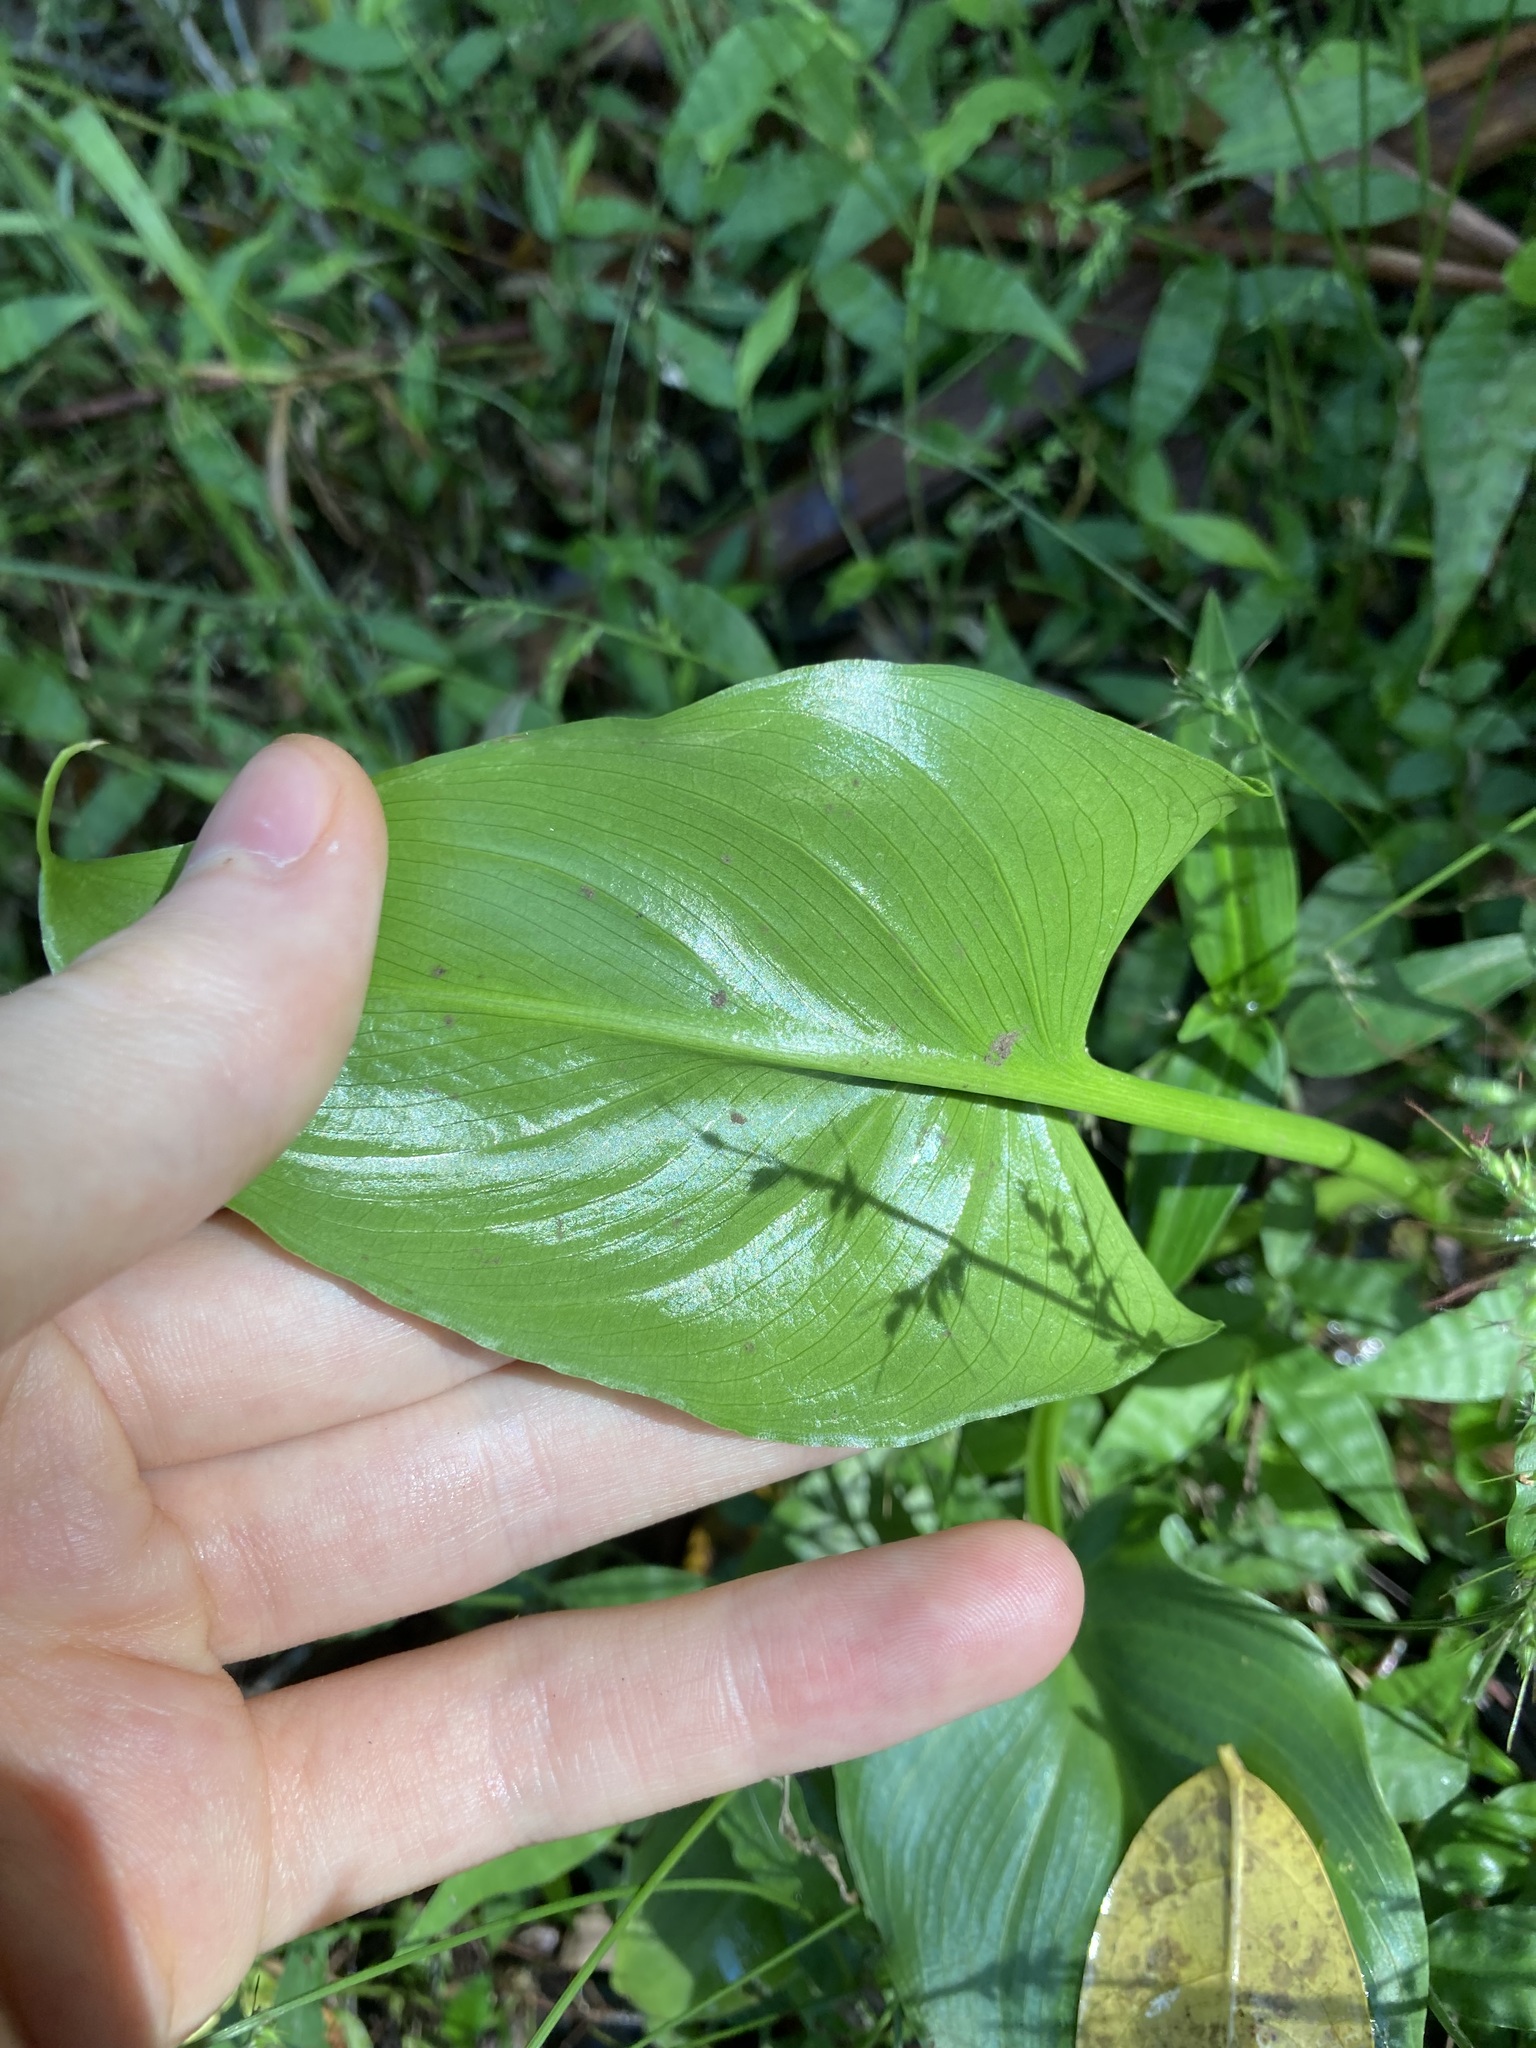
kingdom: Plantae
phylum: Tracheophyta
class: Liliopsida
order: Alismatales
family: Araceae
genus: Zantedeschia
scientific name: Zantedeschia aethiopica
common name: Altar-lily
